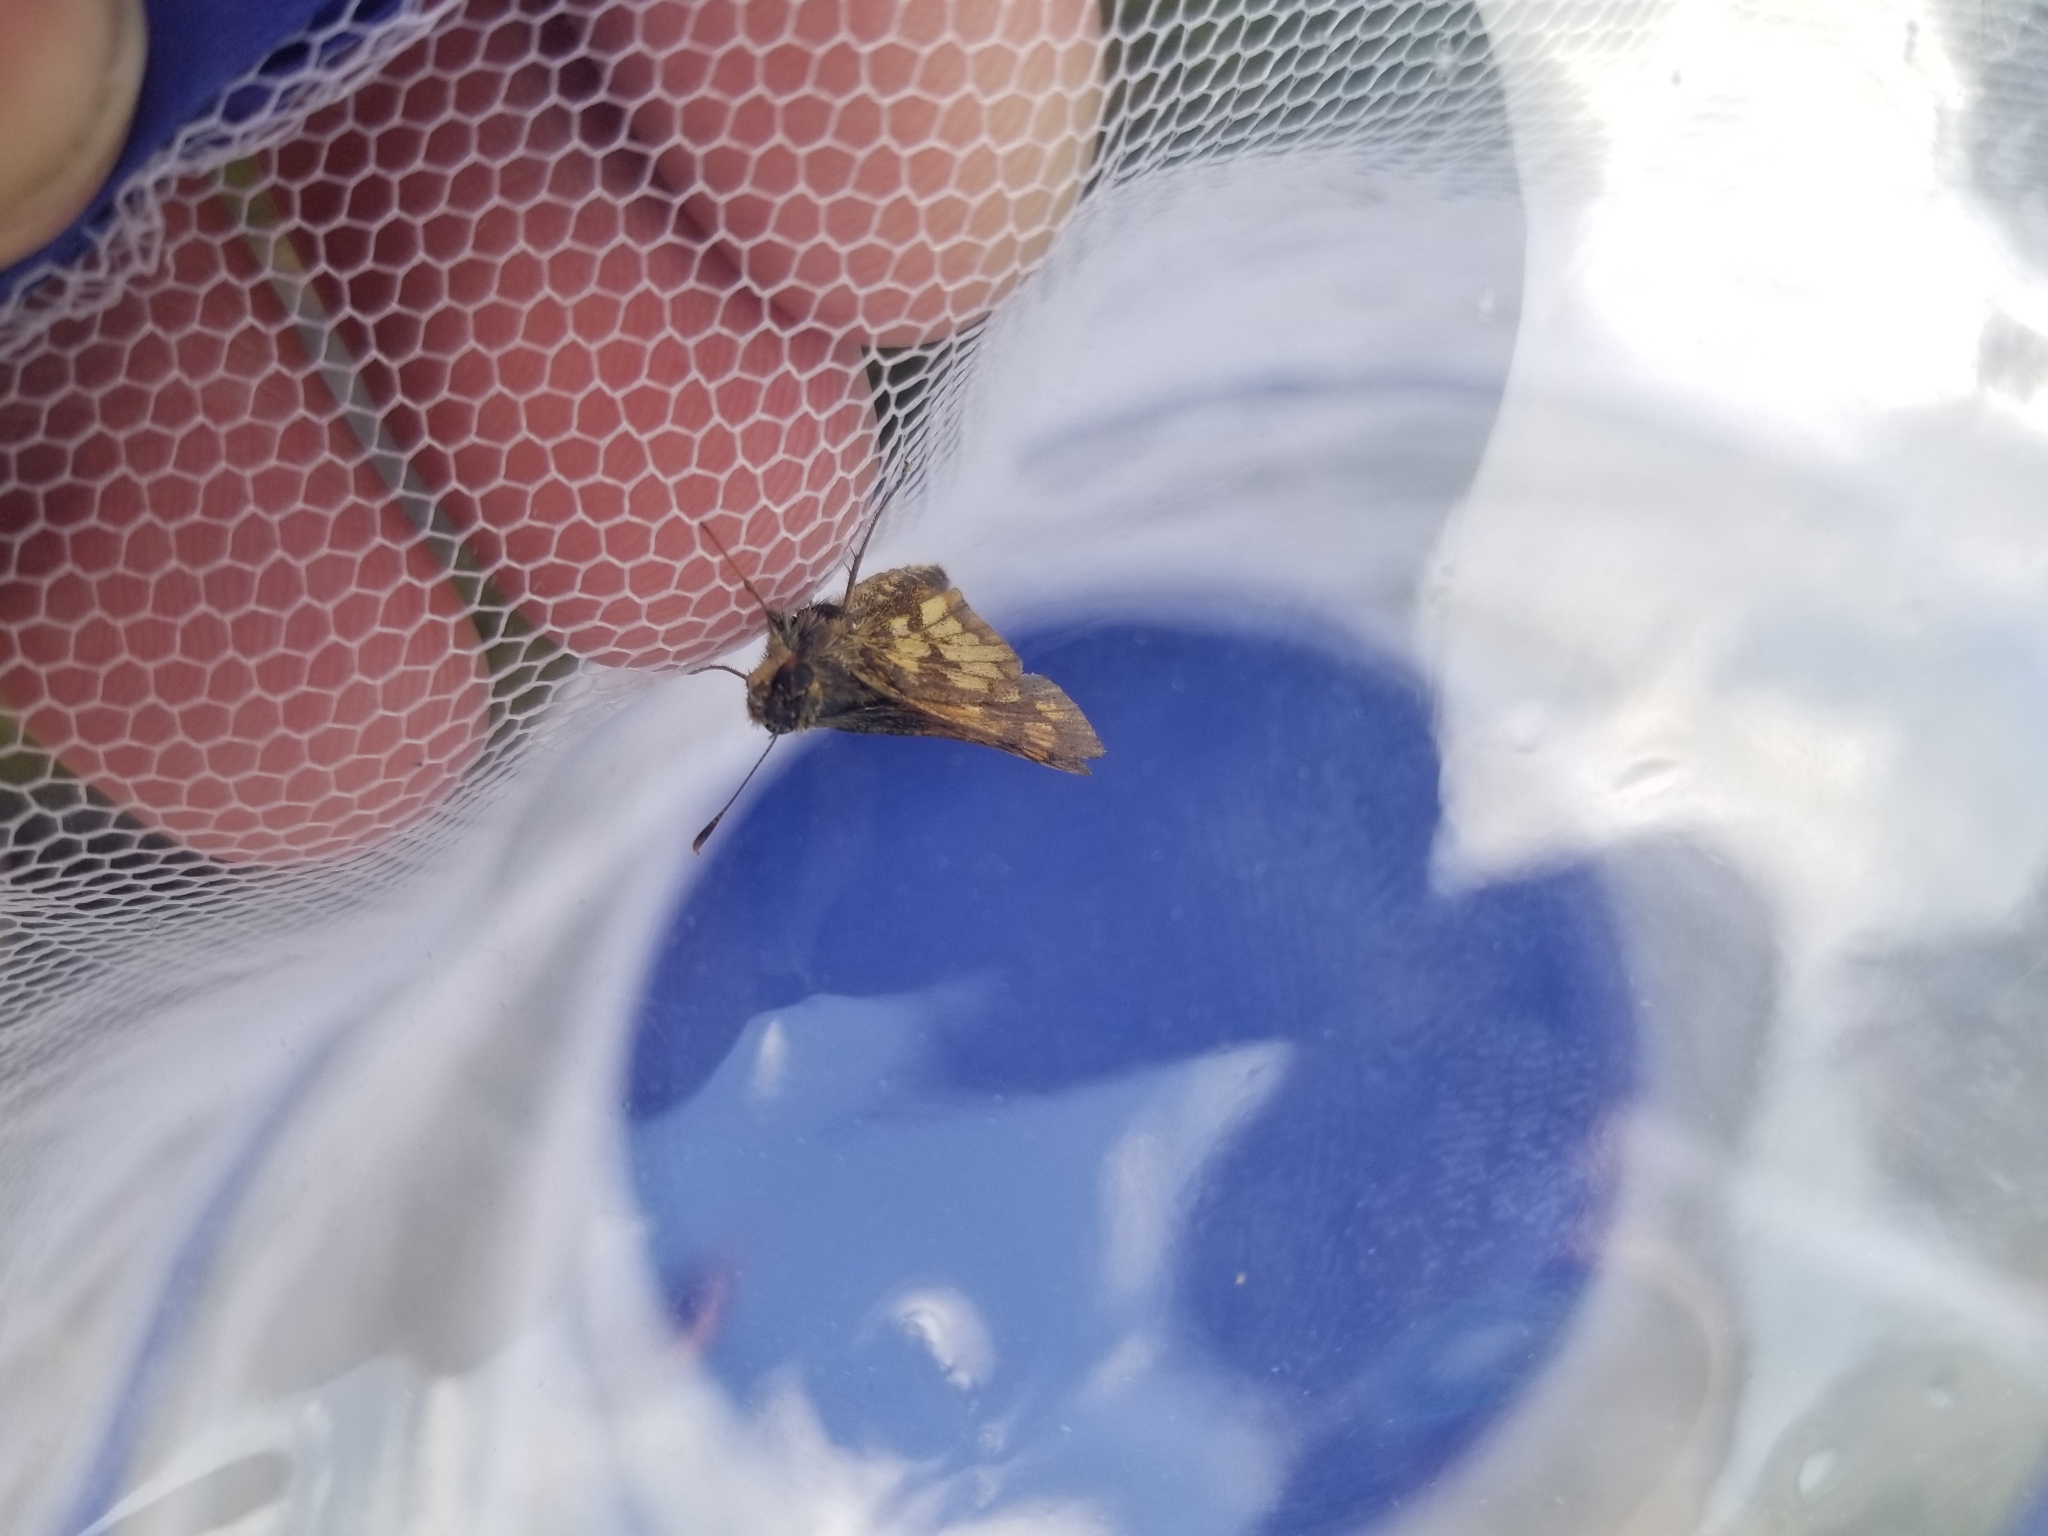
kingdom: Animalia
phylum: Arthropoda
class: Insecta
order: Lepidoptera
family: Hesperiidae
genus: Polites
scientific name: Polites coras
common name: Peck's skipper
